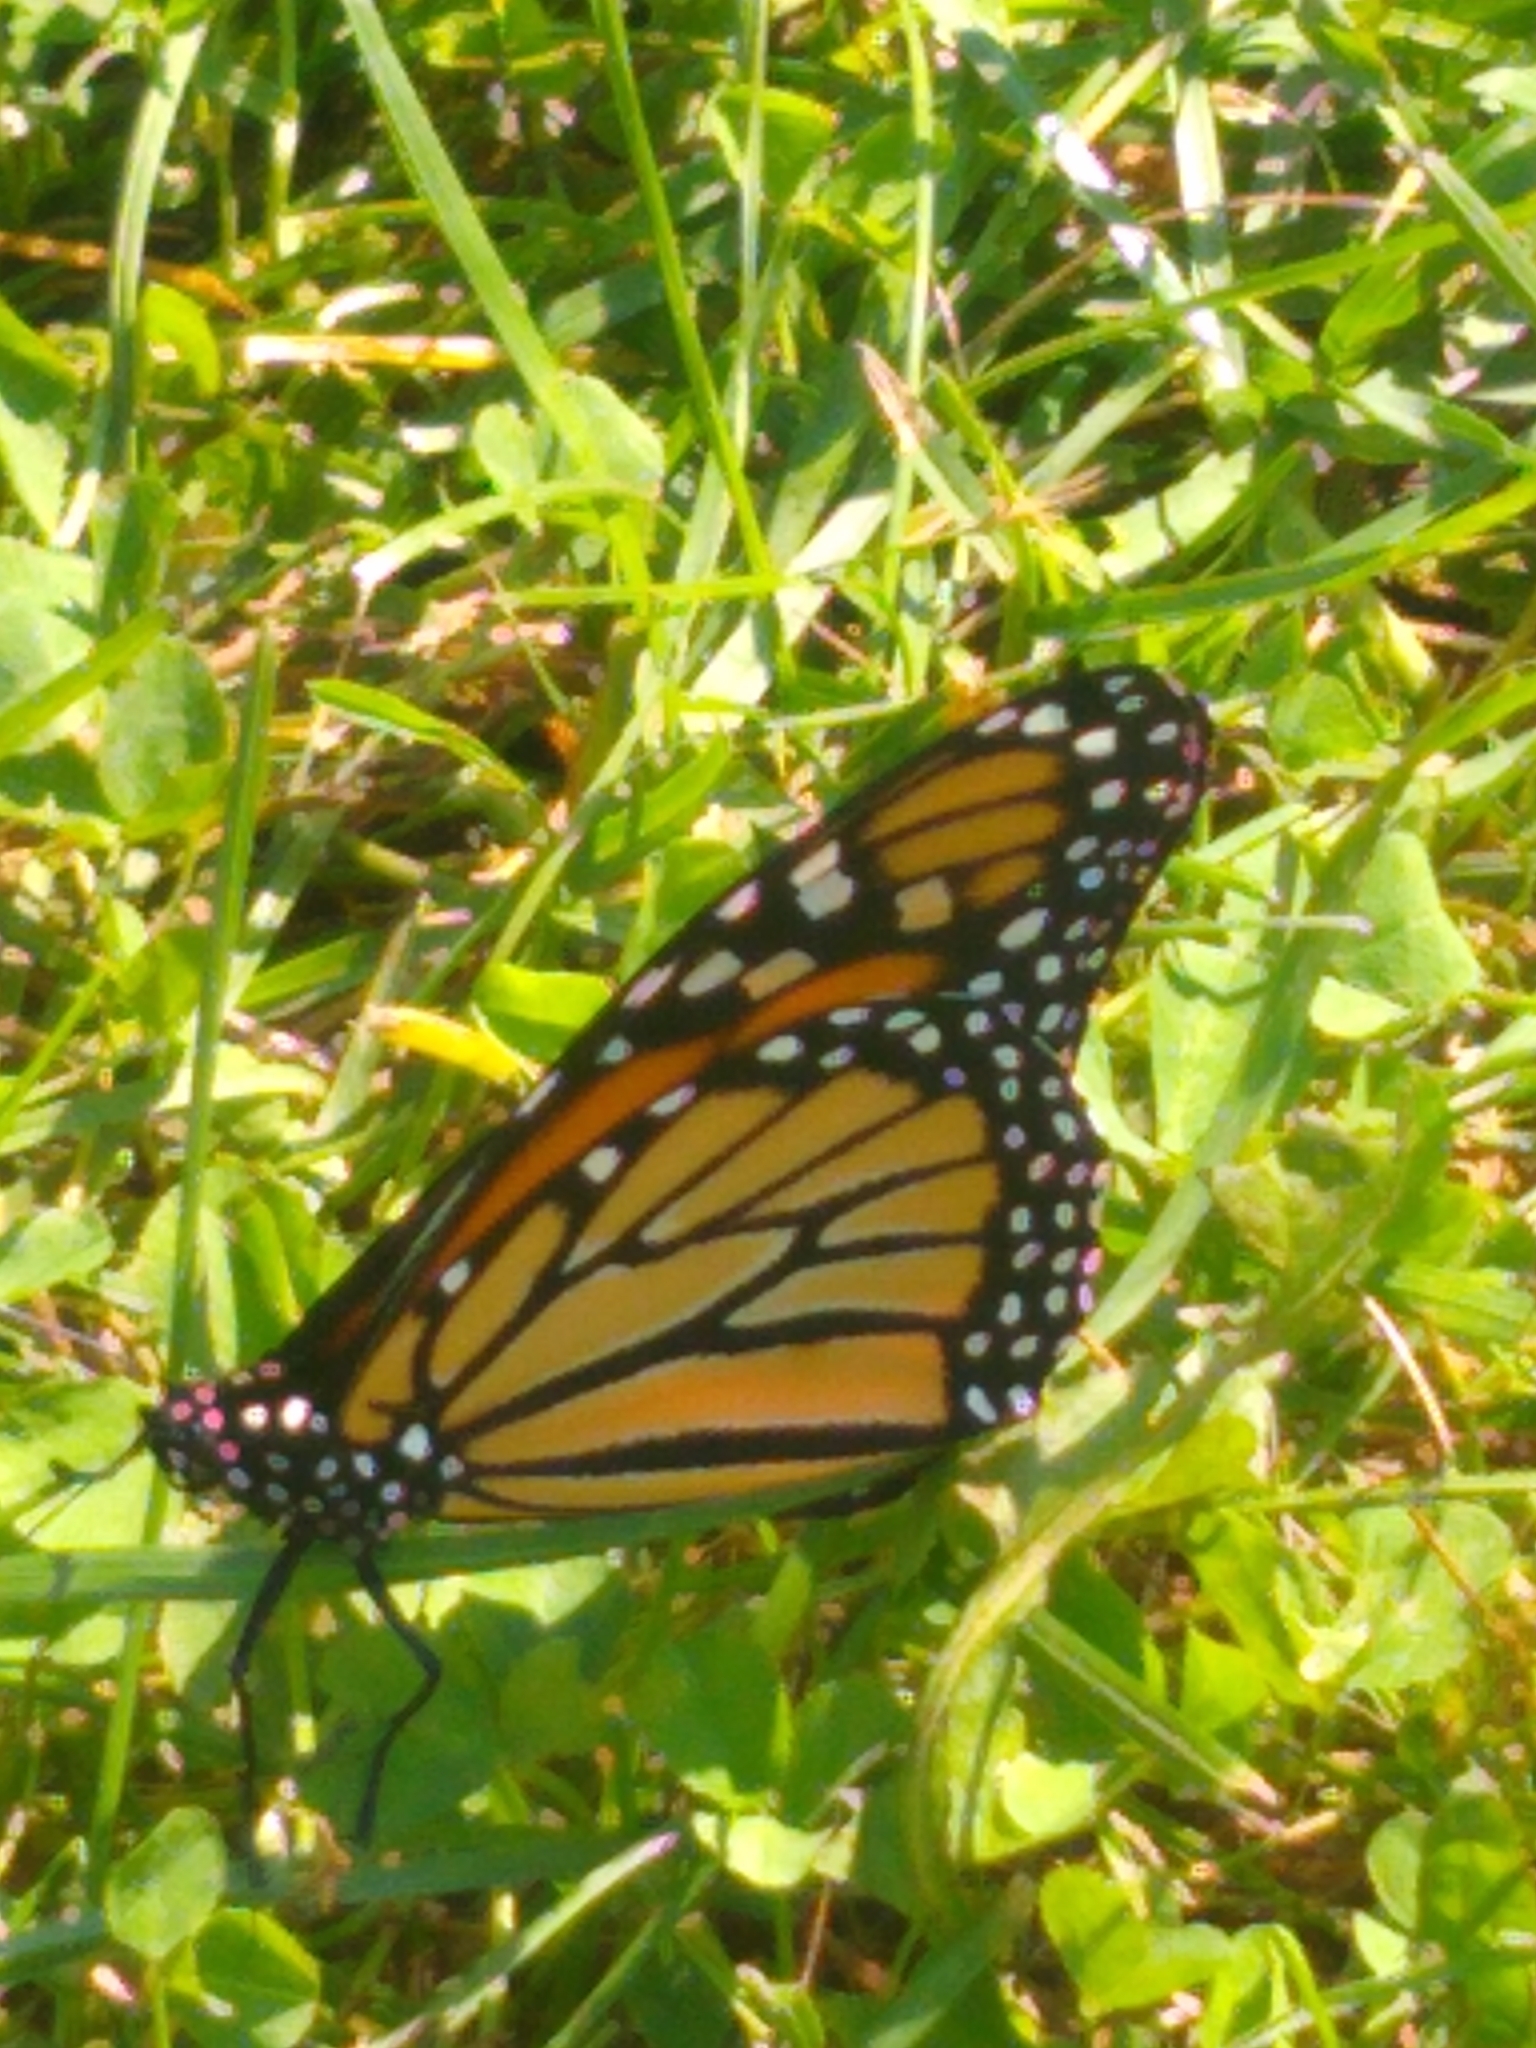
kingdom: Animalia
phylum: Arthropoda
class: Insecta
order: Lepidoptera
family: Nymphalidae
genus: Danaus
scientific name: Danaus plexippus
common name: Monarch
